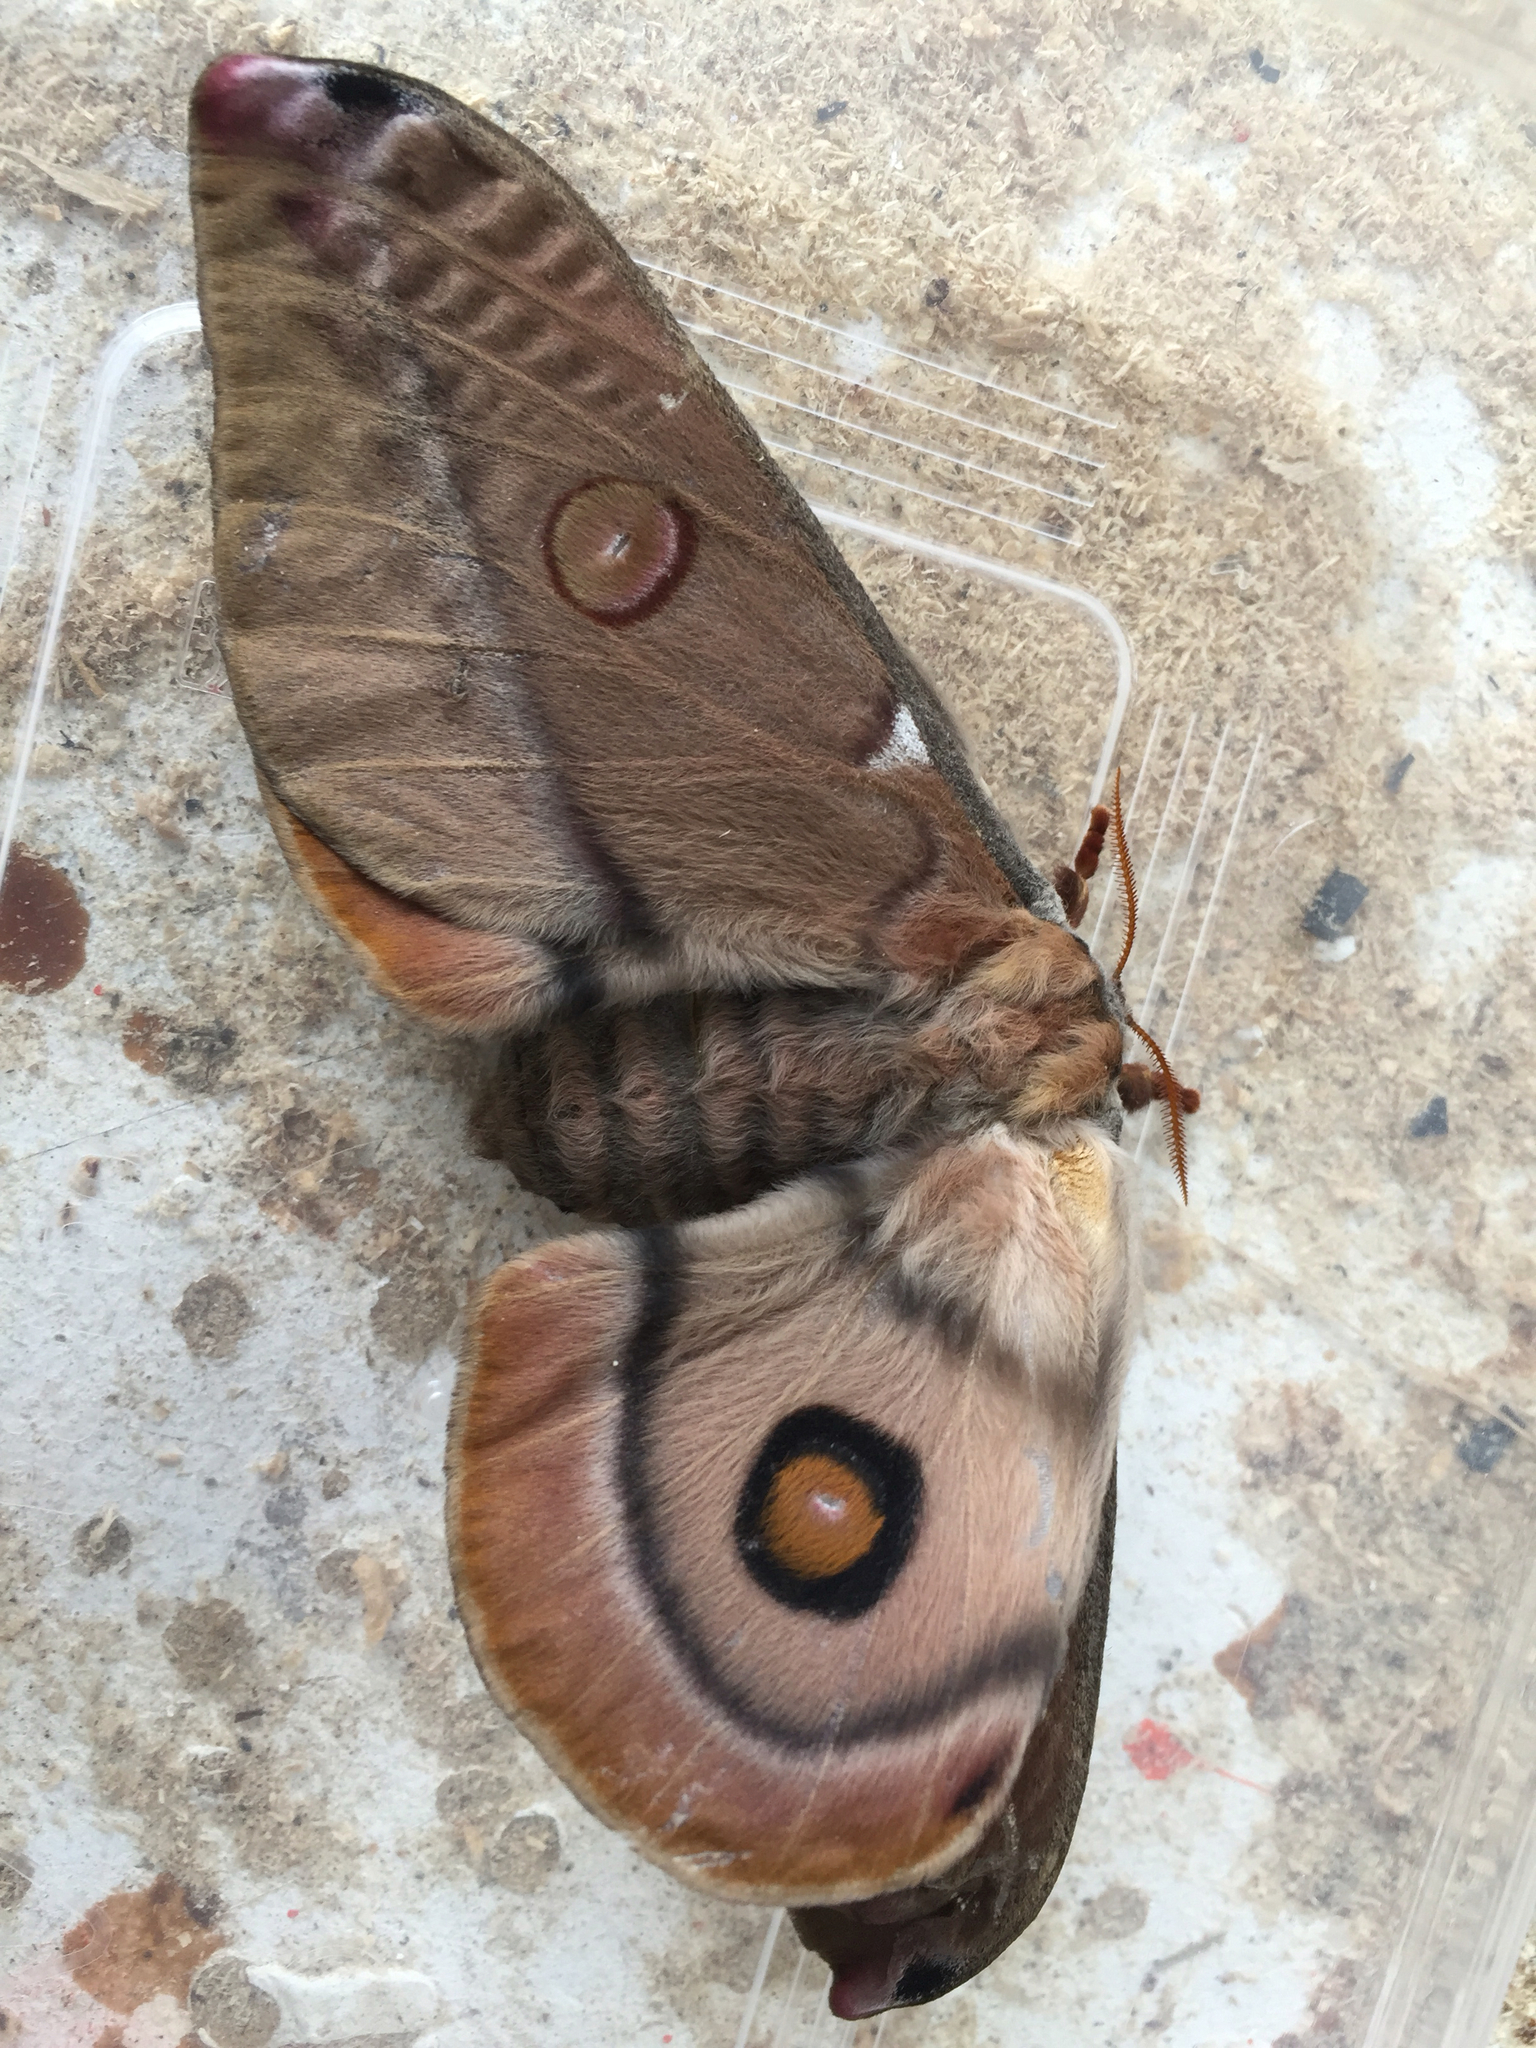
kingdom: Animalia
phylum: Arthropoda
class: Insecta
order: Lepidoptera
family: Saturniidae
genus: Opodiphthera
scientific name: Opodiphthera
